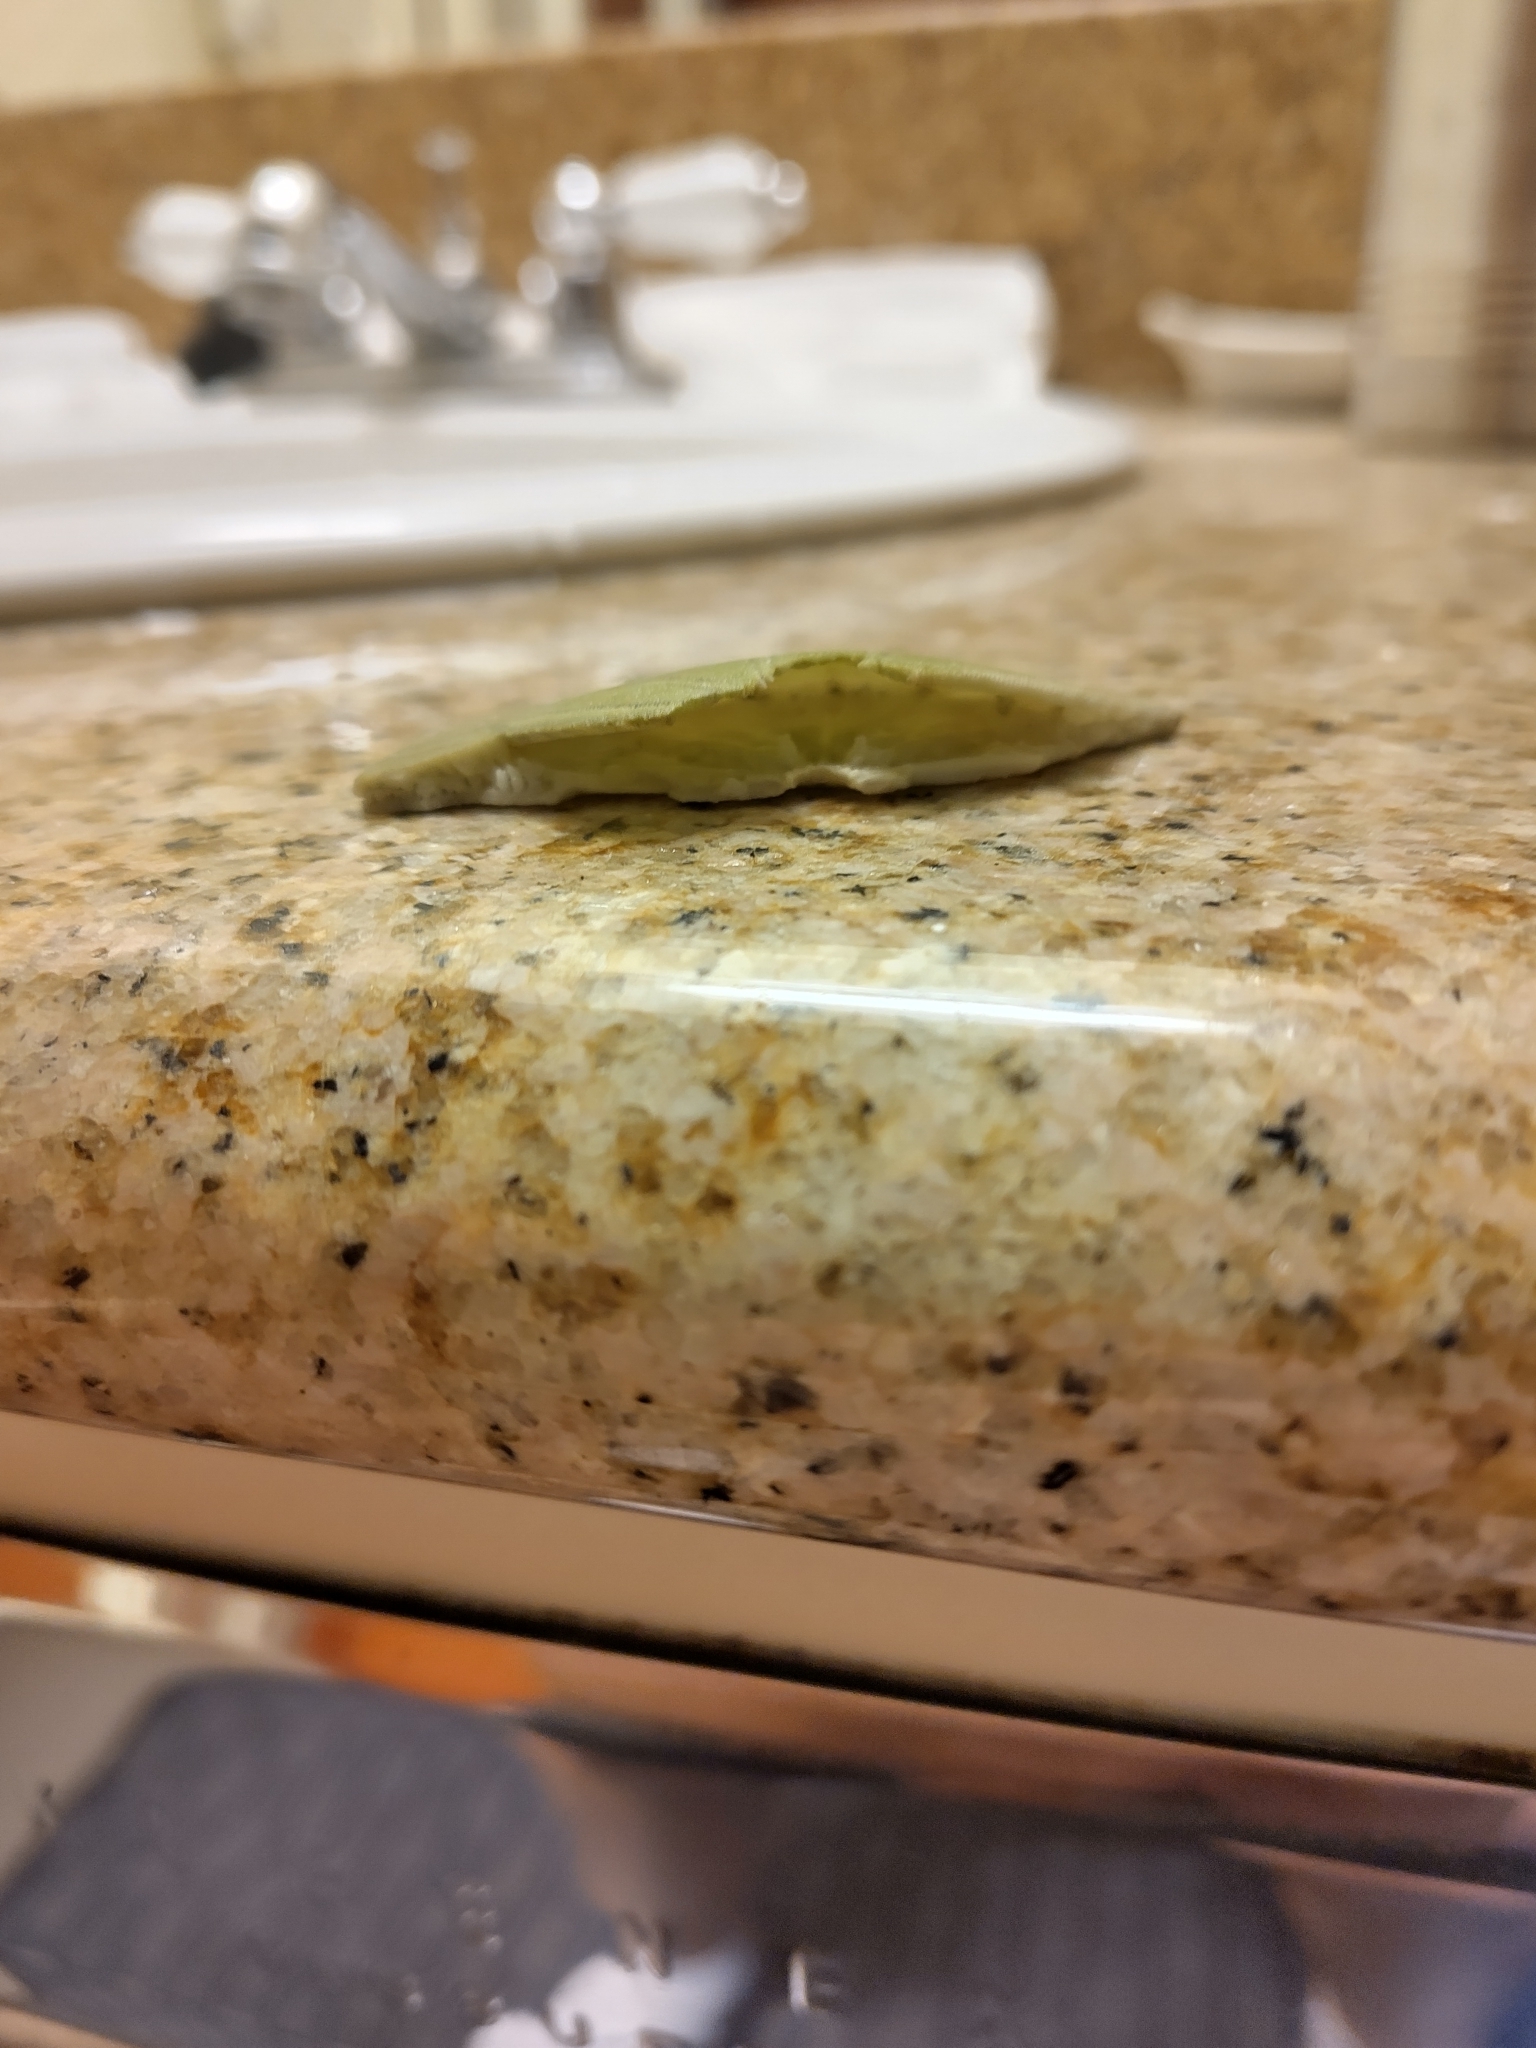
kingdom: Animalia
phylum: Echinodermata
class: Echinoidea
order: Echinolampadacea
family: Dendrasteridae
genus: Dendraster
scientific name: Dendraster excentricus
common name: Eccentric sand dollar sea urchin
